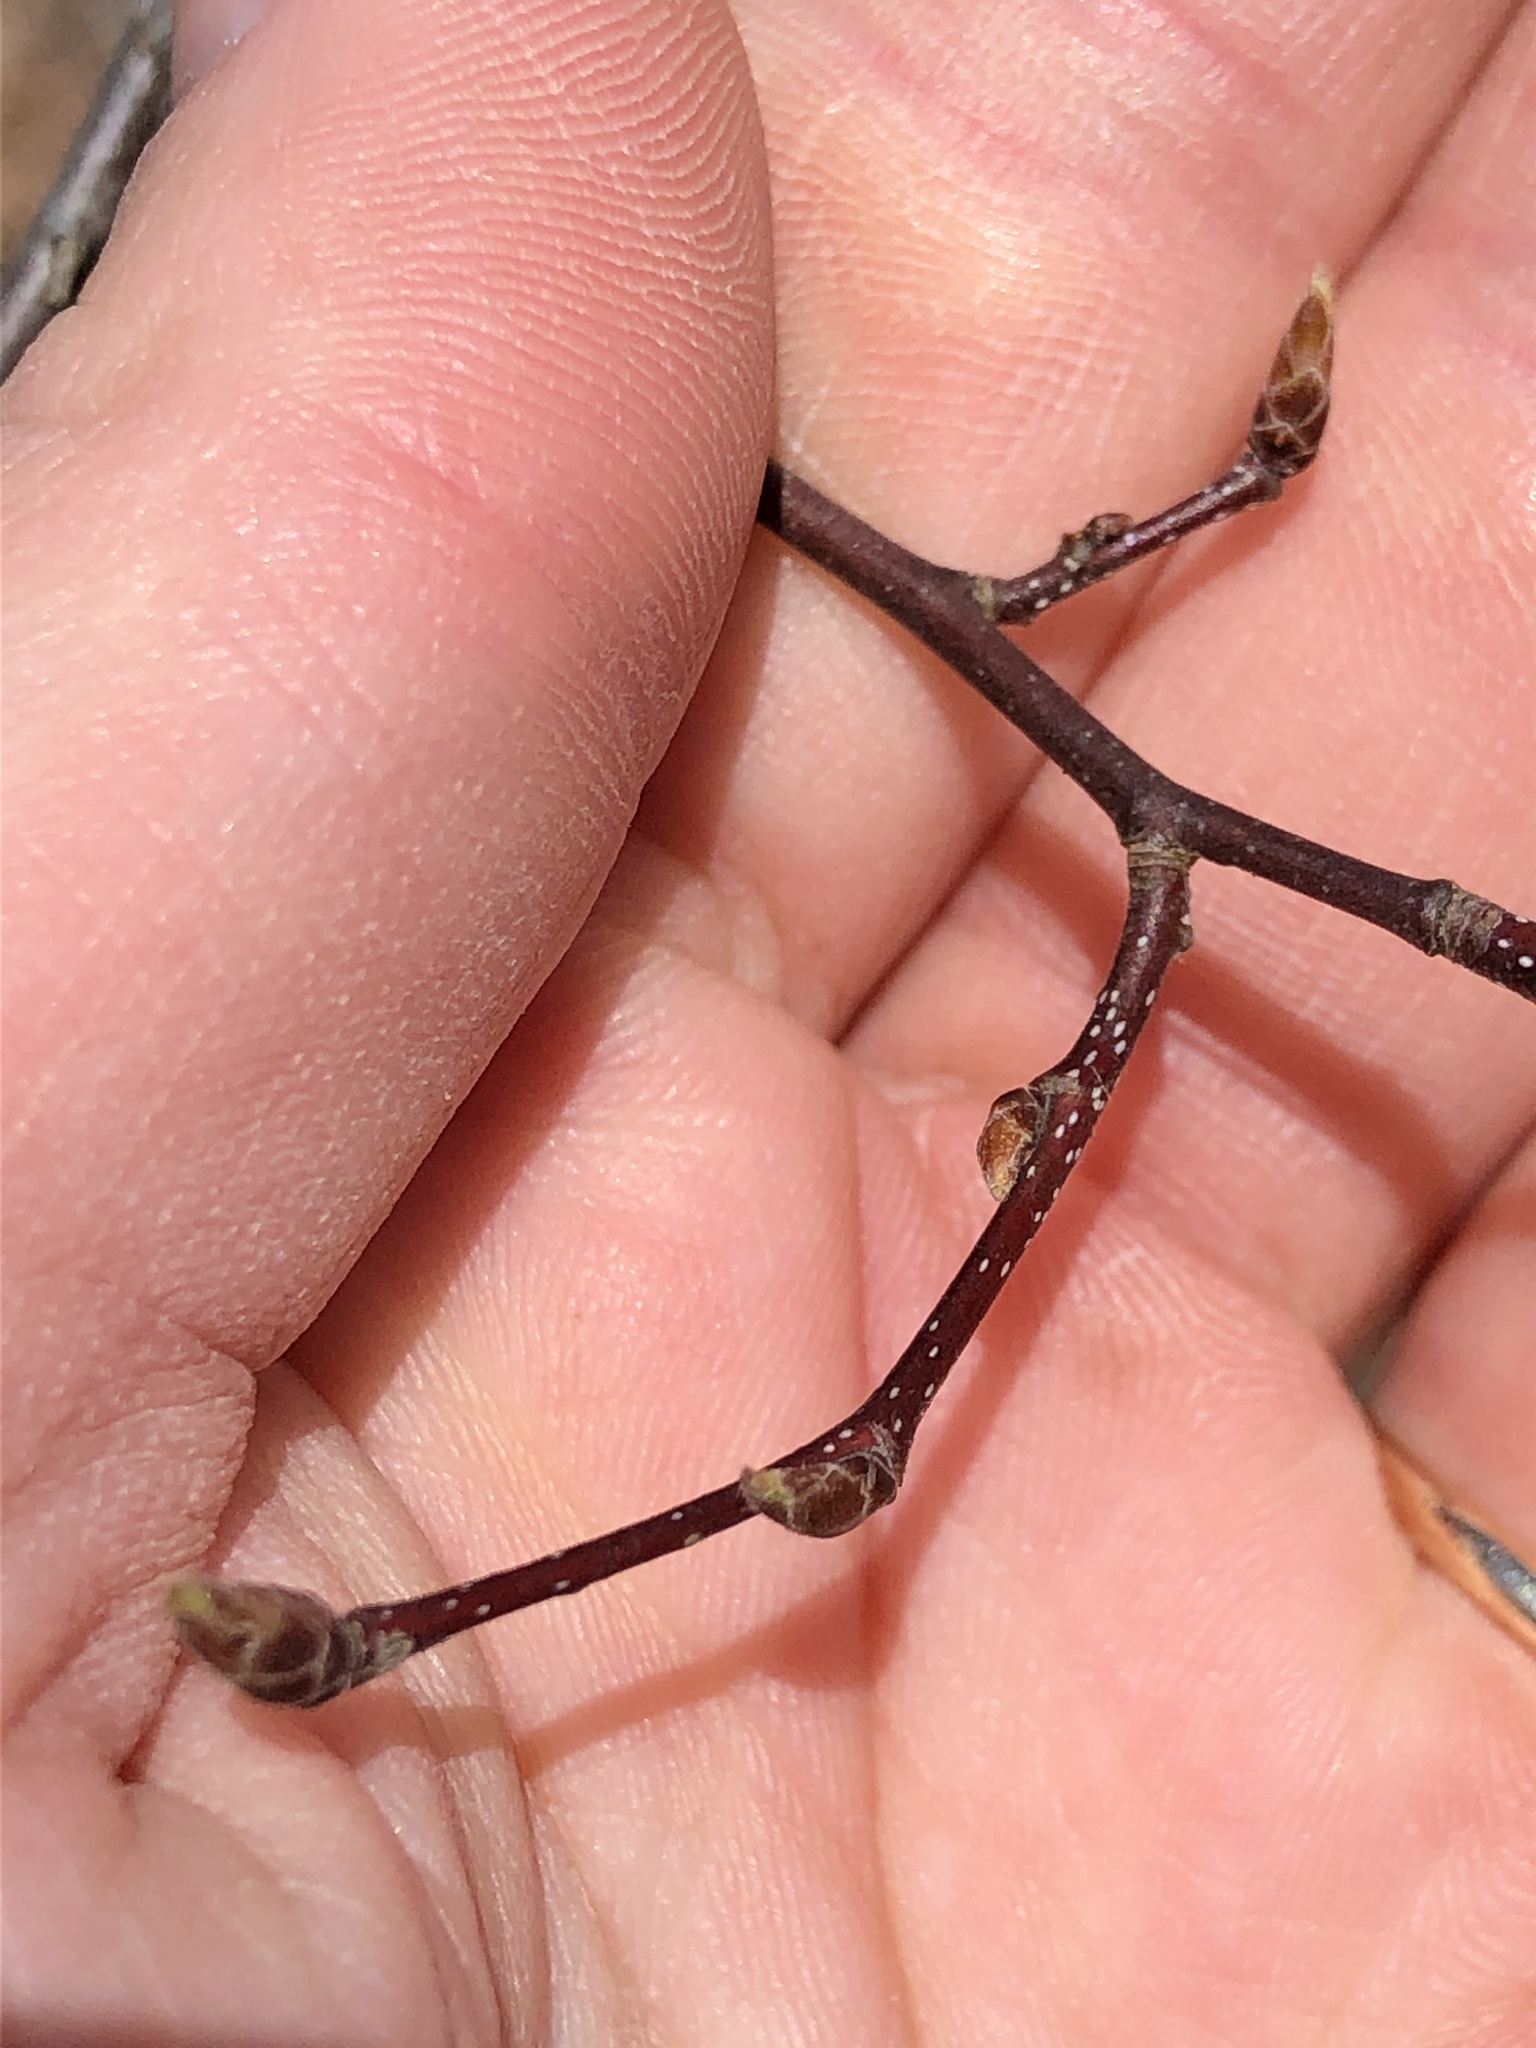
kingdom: Plantae
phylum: Tracheophyta
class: Magnoliopsida
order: Fagales
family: Betulaceae
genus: Carpinus
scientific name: Carpinus caroliniana
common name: American hornbeam
